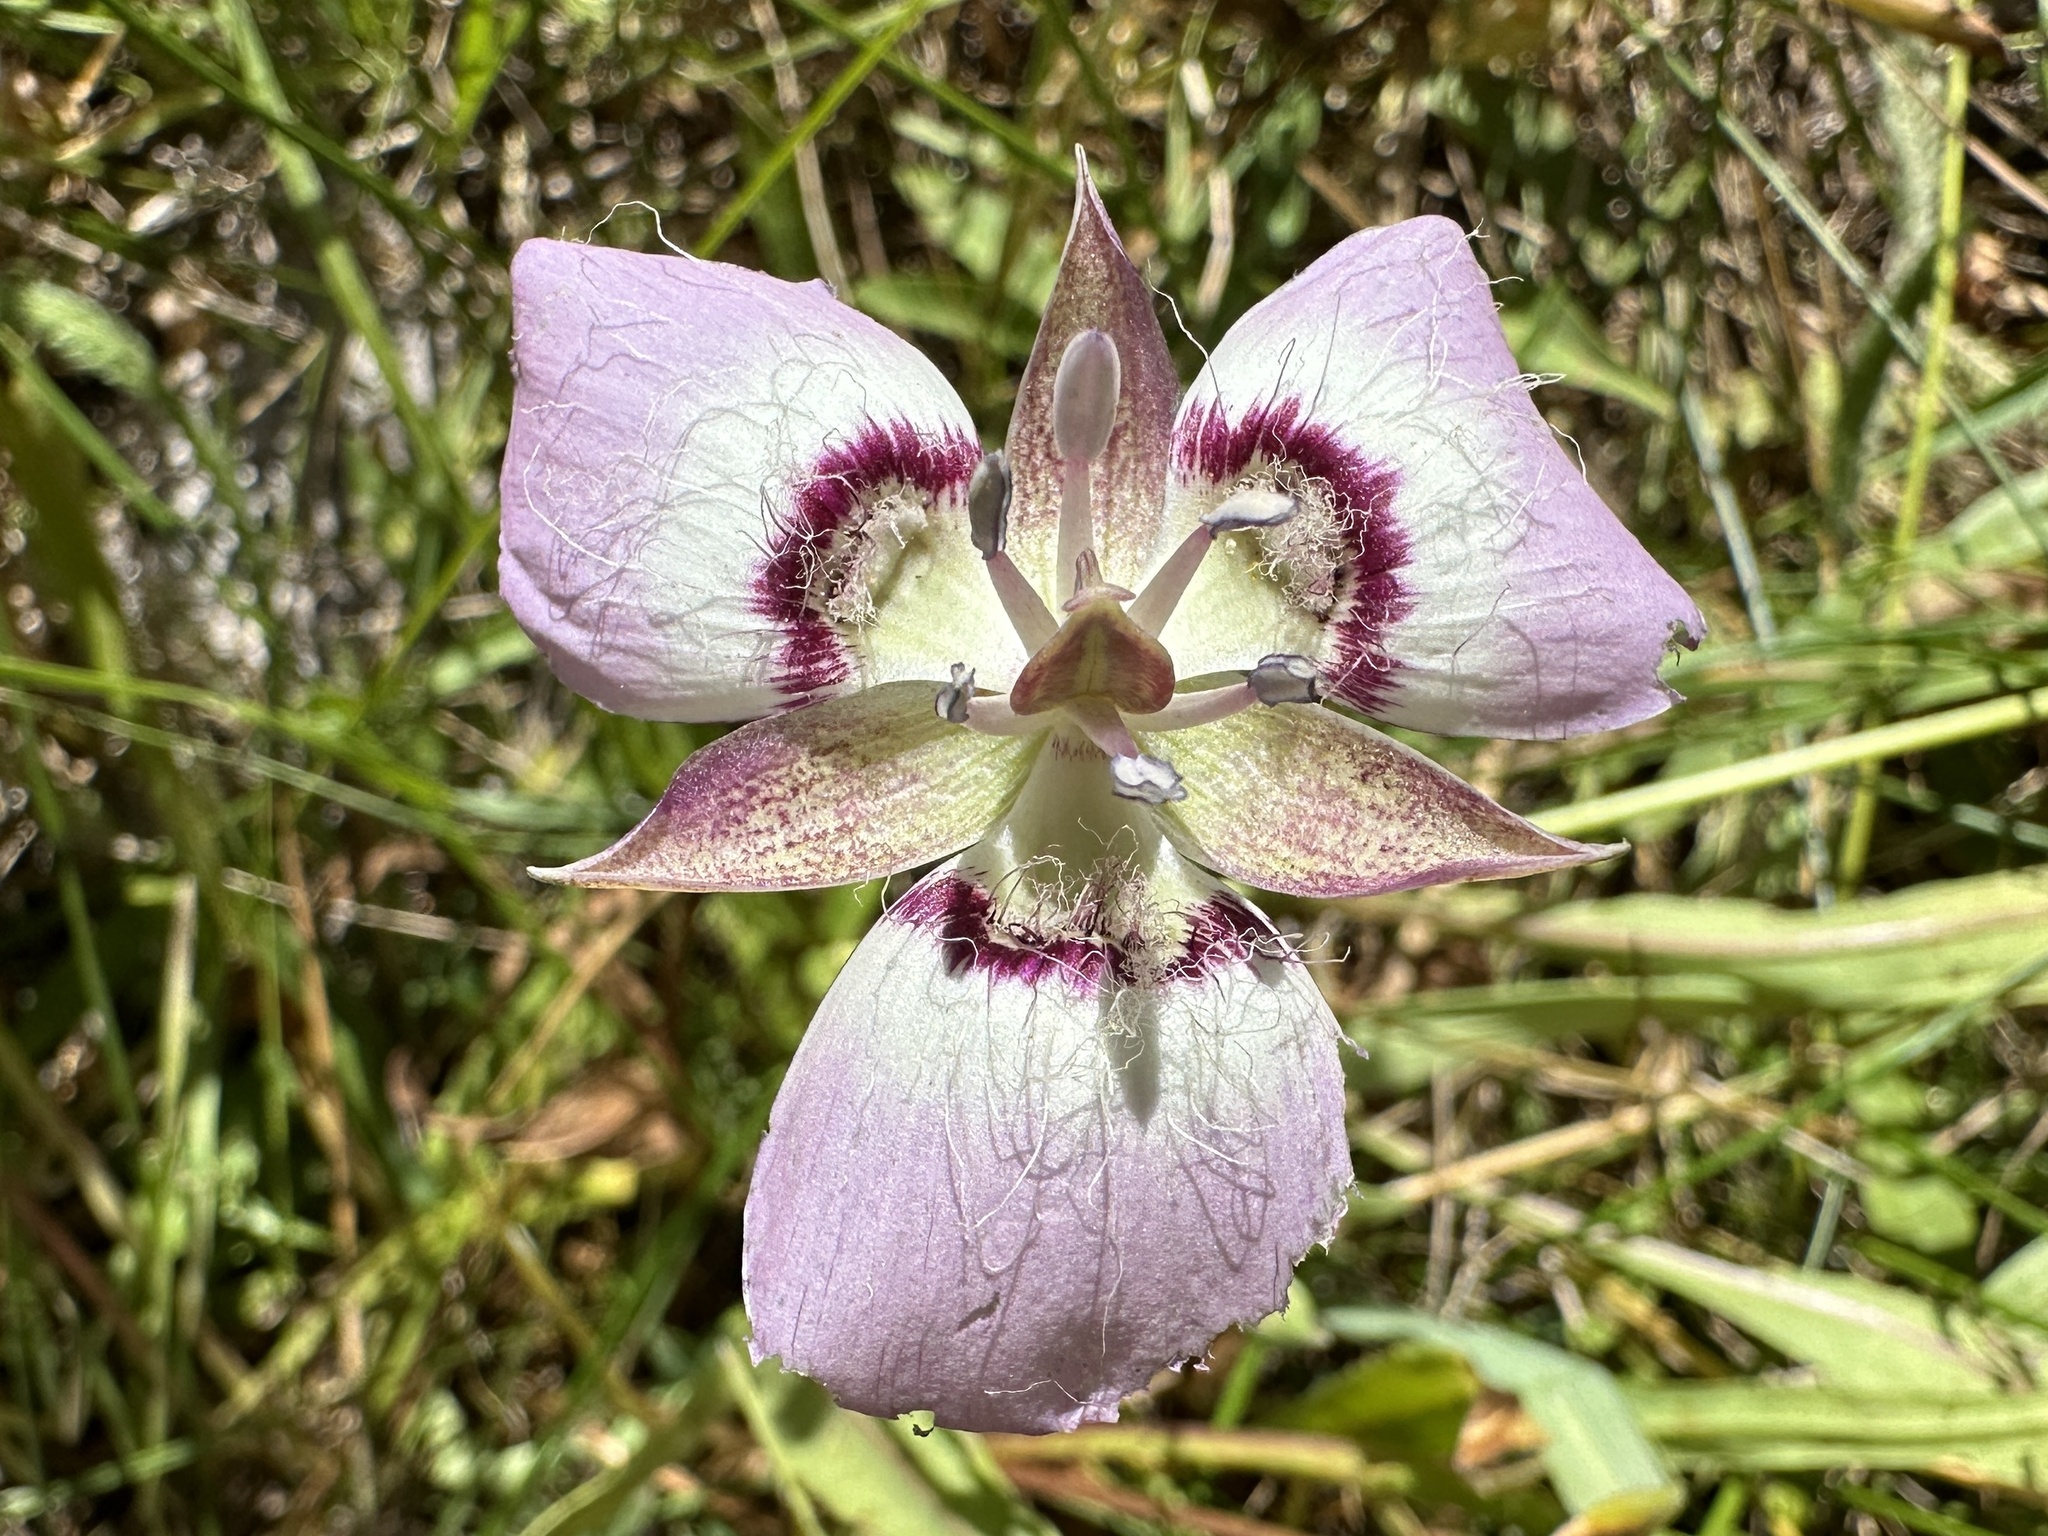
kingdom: Plantae
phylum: Tracheophyta
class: Liliopsida
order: Liliales
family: Liliaceae
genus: Calochortus
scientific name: Calochortus longibarbatus
